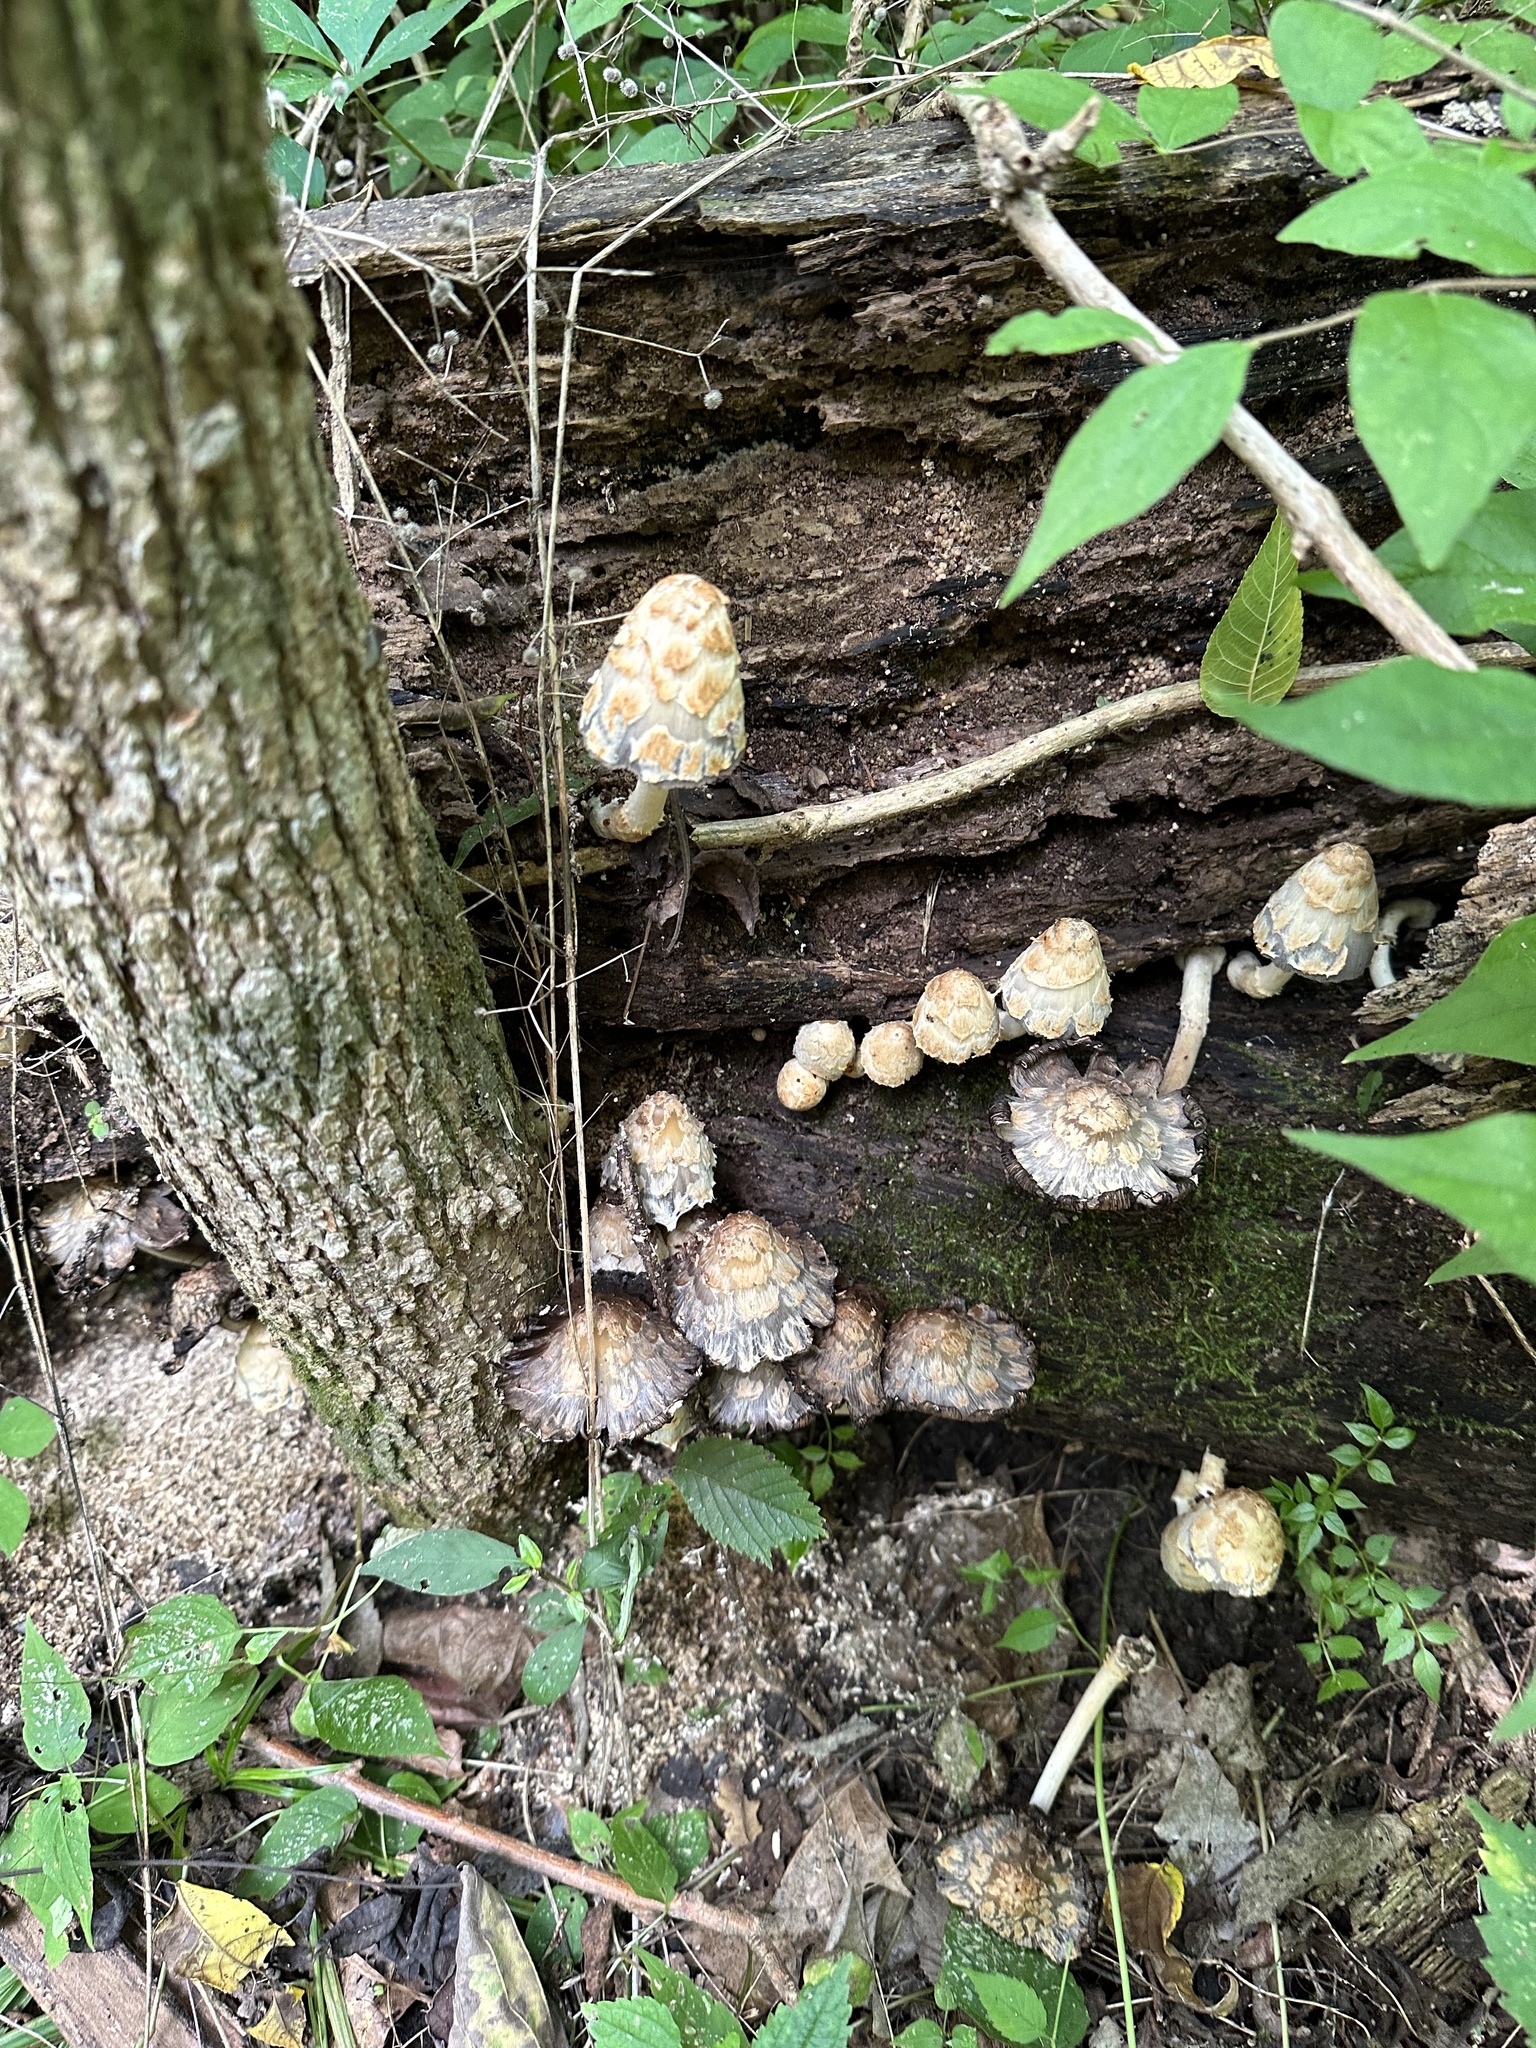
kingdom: Fungi
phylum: Basidiomycota
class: Agaricomycetes
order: Agaricales
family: Psathyrellaceae
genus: Coprinopsis
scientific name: Coprinopsis variegata
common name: Scaly ink cap
